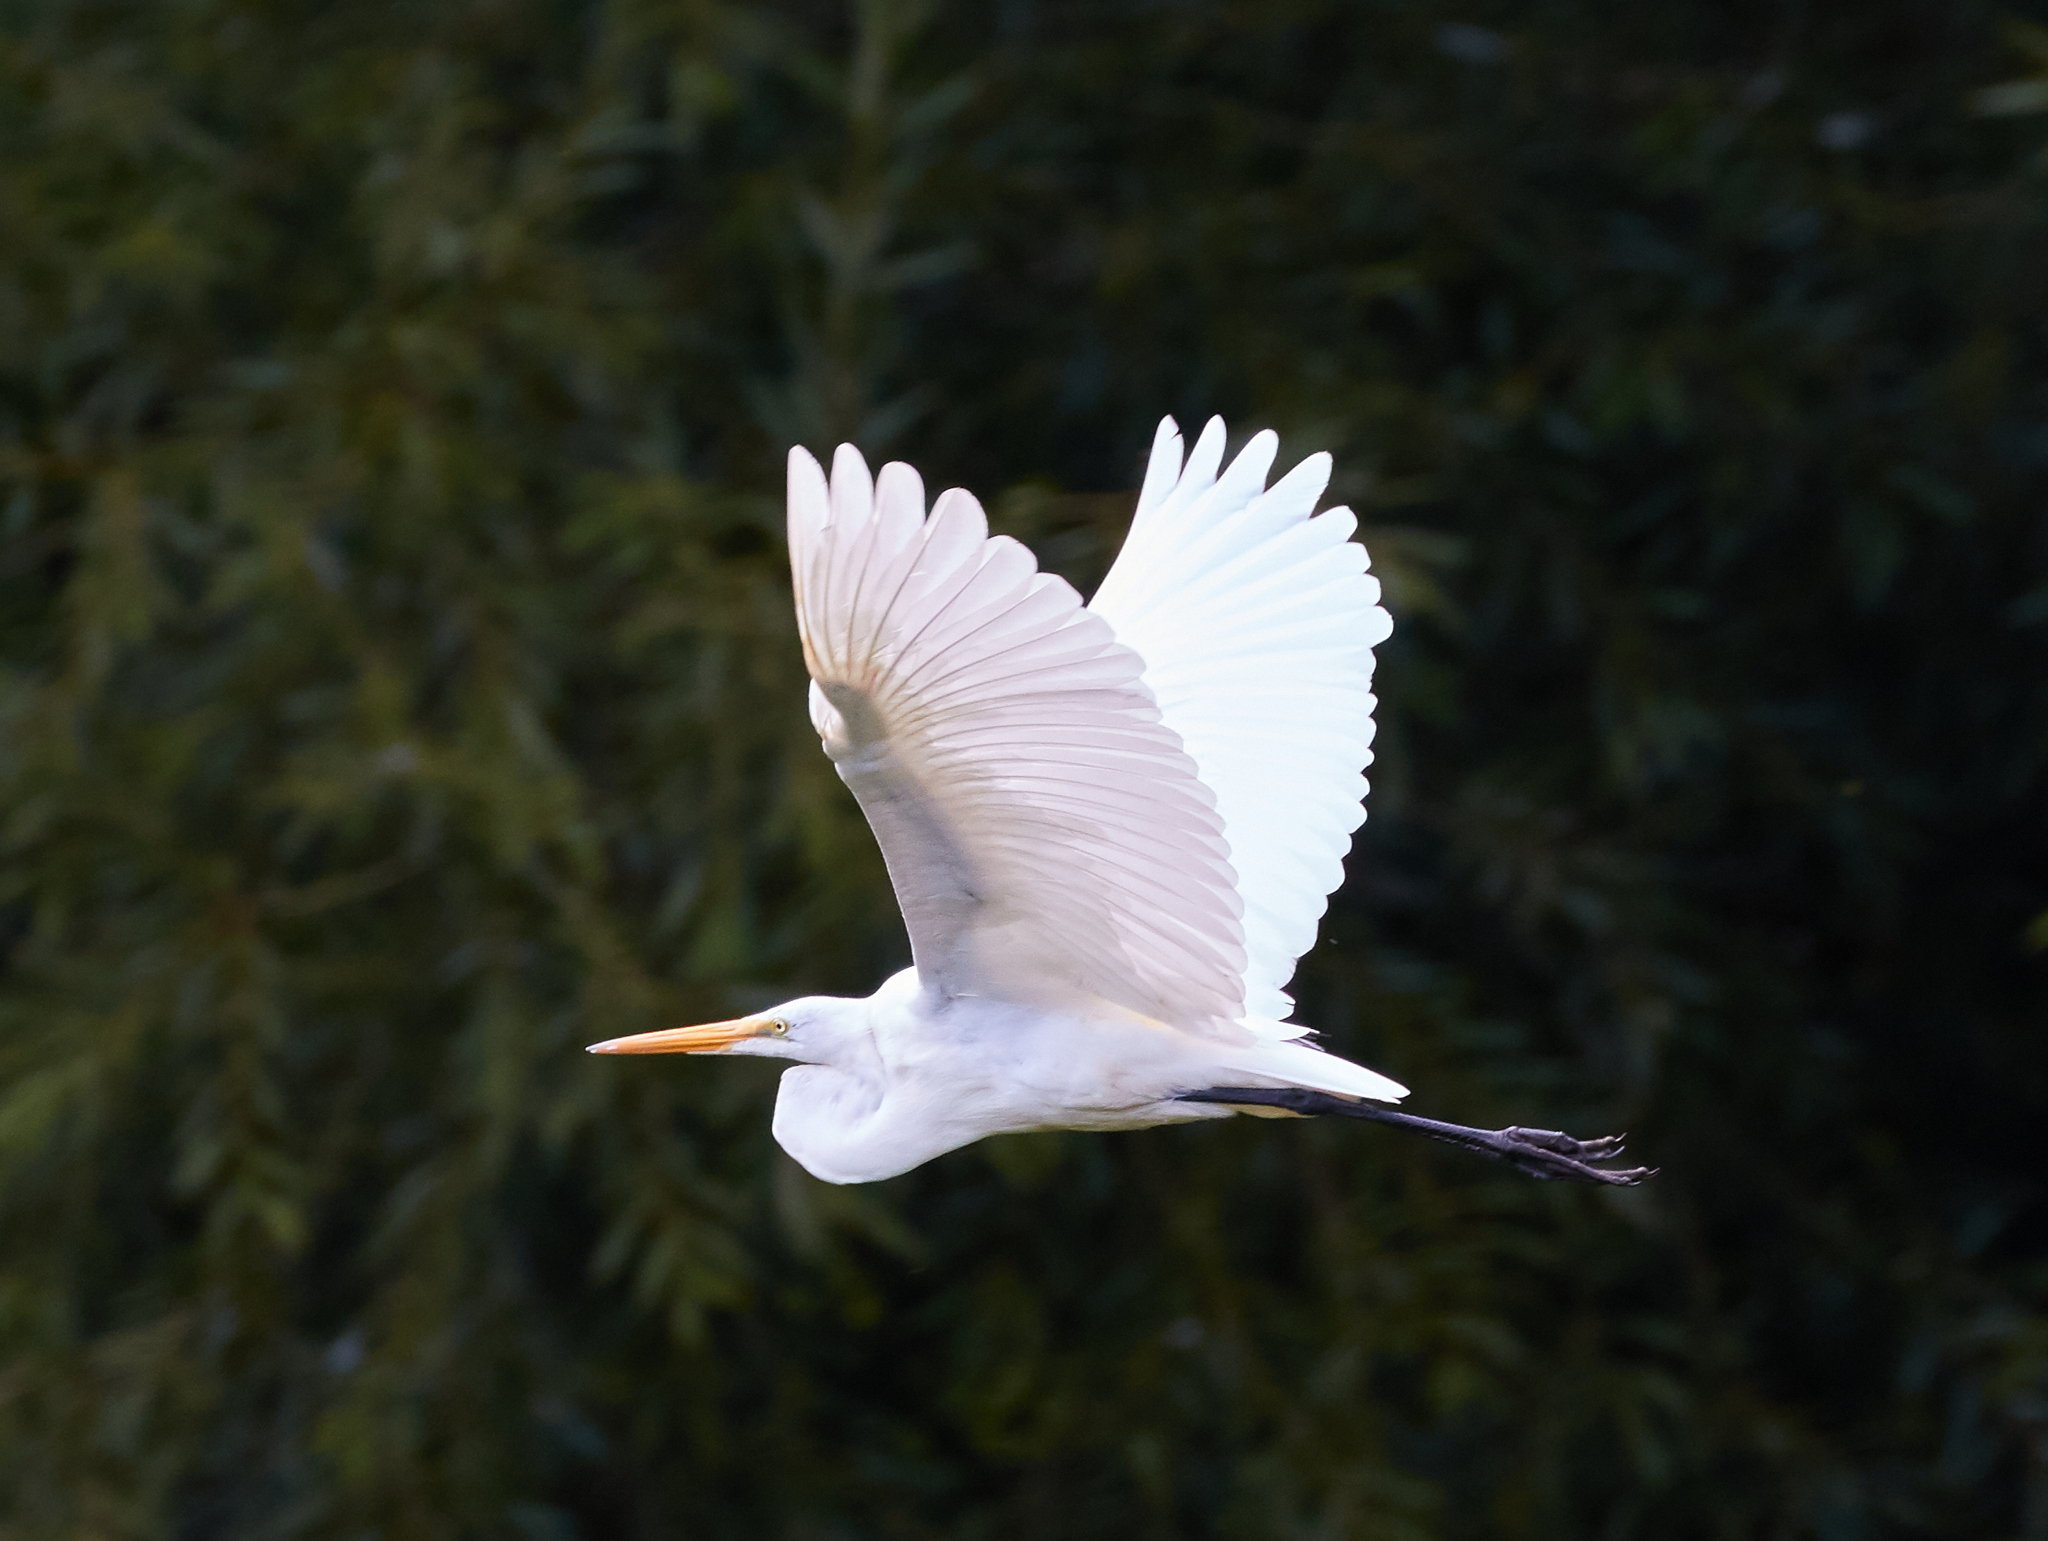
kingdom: Animalia
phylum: Chordata
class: Aves
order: Pelecaniformes
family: Ardeidae
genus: Ardea
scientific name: Ardea alba
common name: Great egret
